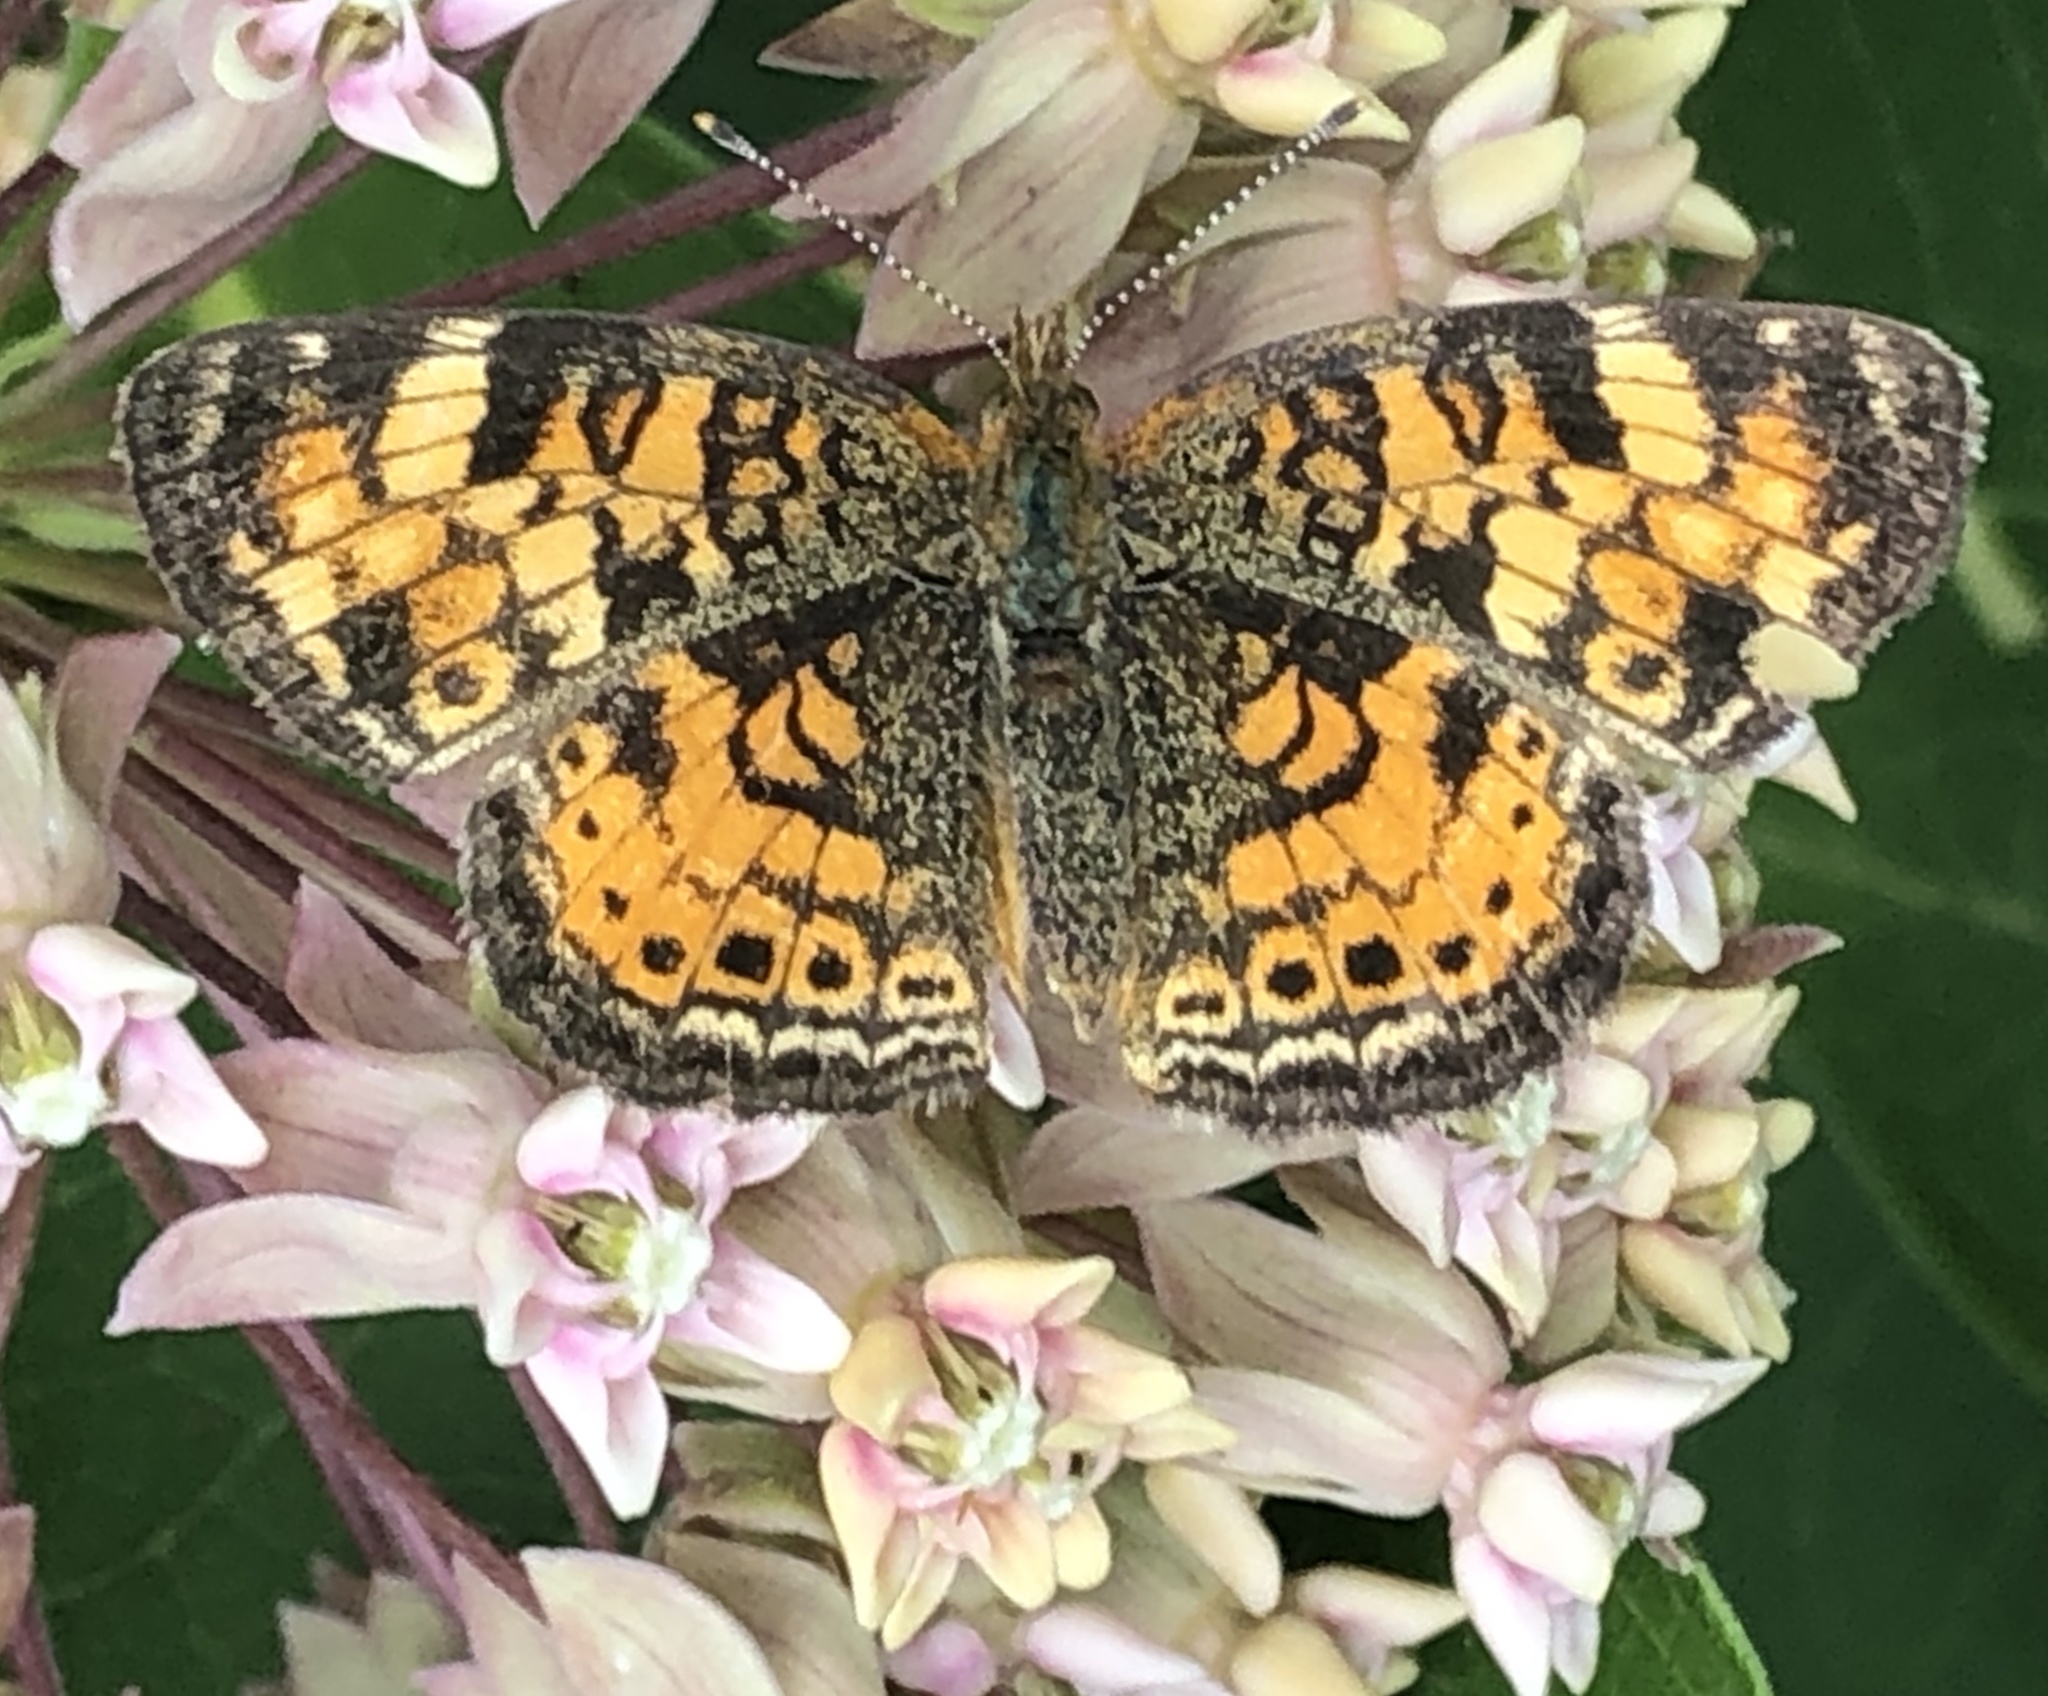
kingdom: Animalia
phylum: Arthropoda
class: Insecta
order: Lepidoptera
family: Nymphalidae
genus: Phyciodes
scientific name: Phyciodes tharos
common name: Pearl crescent
